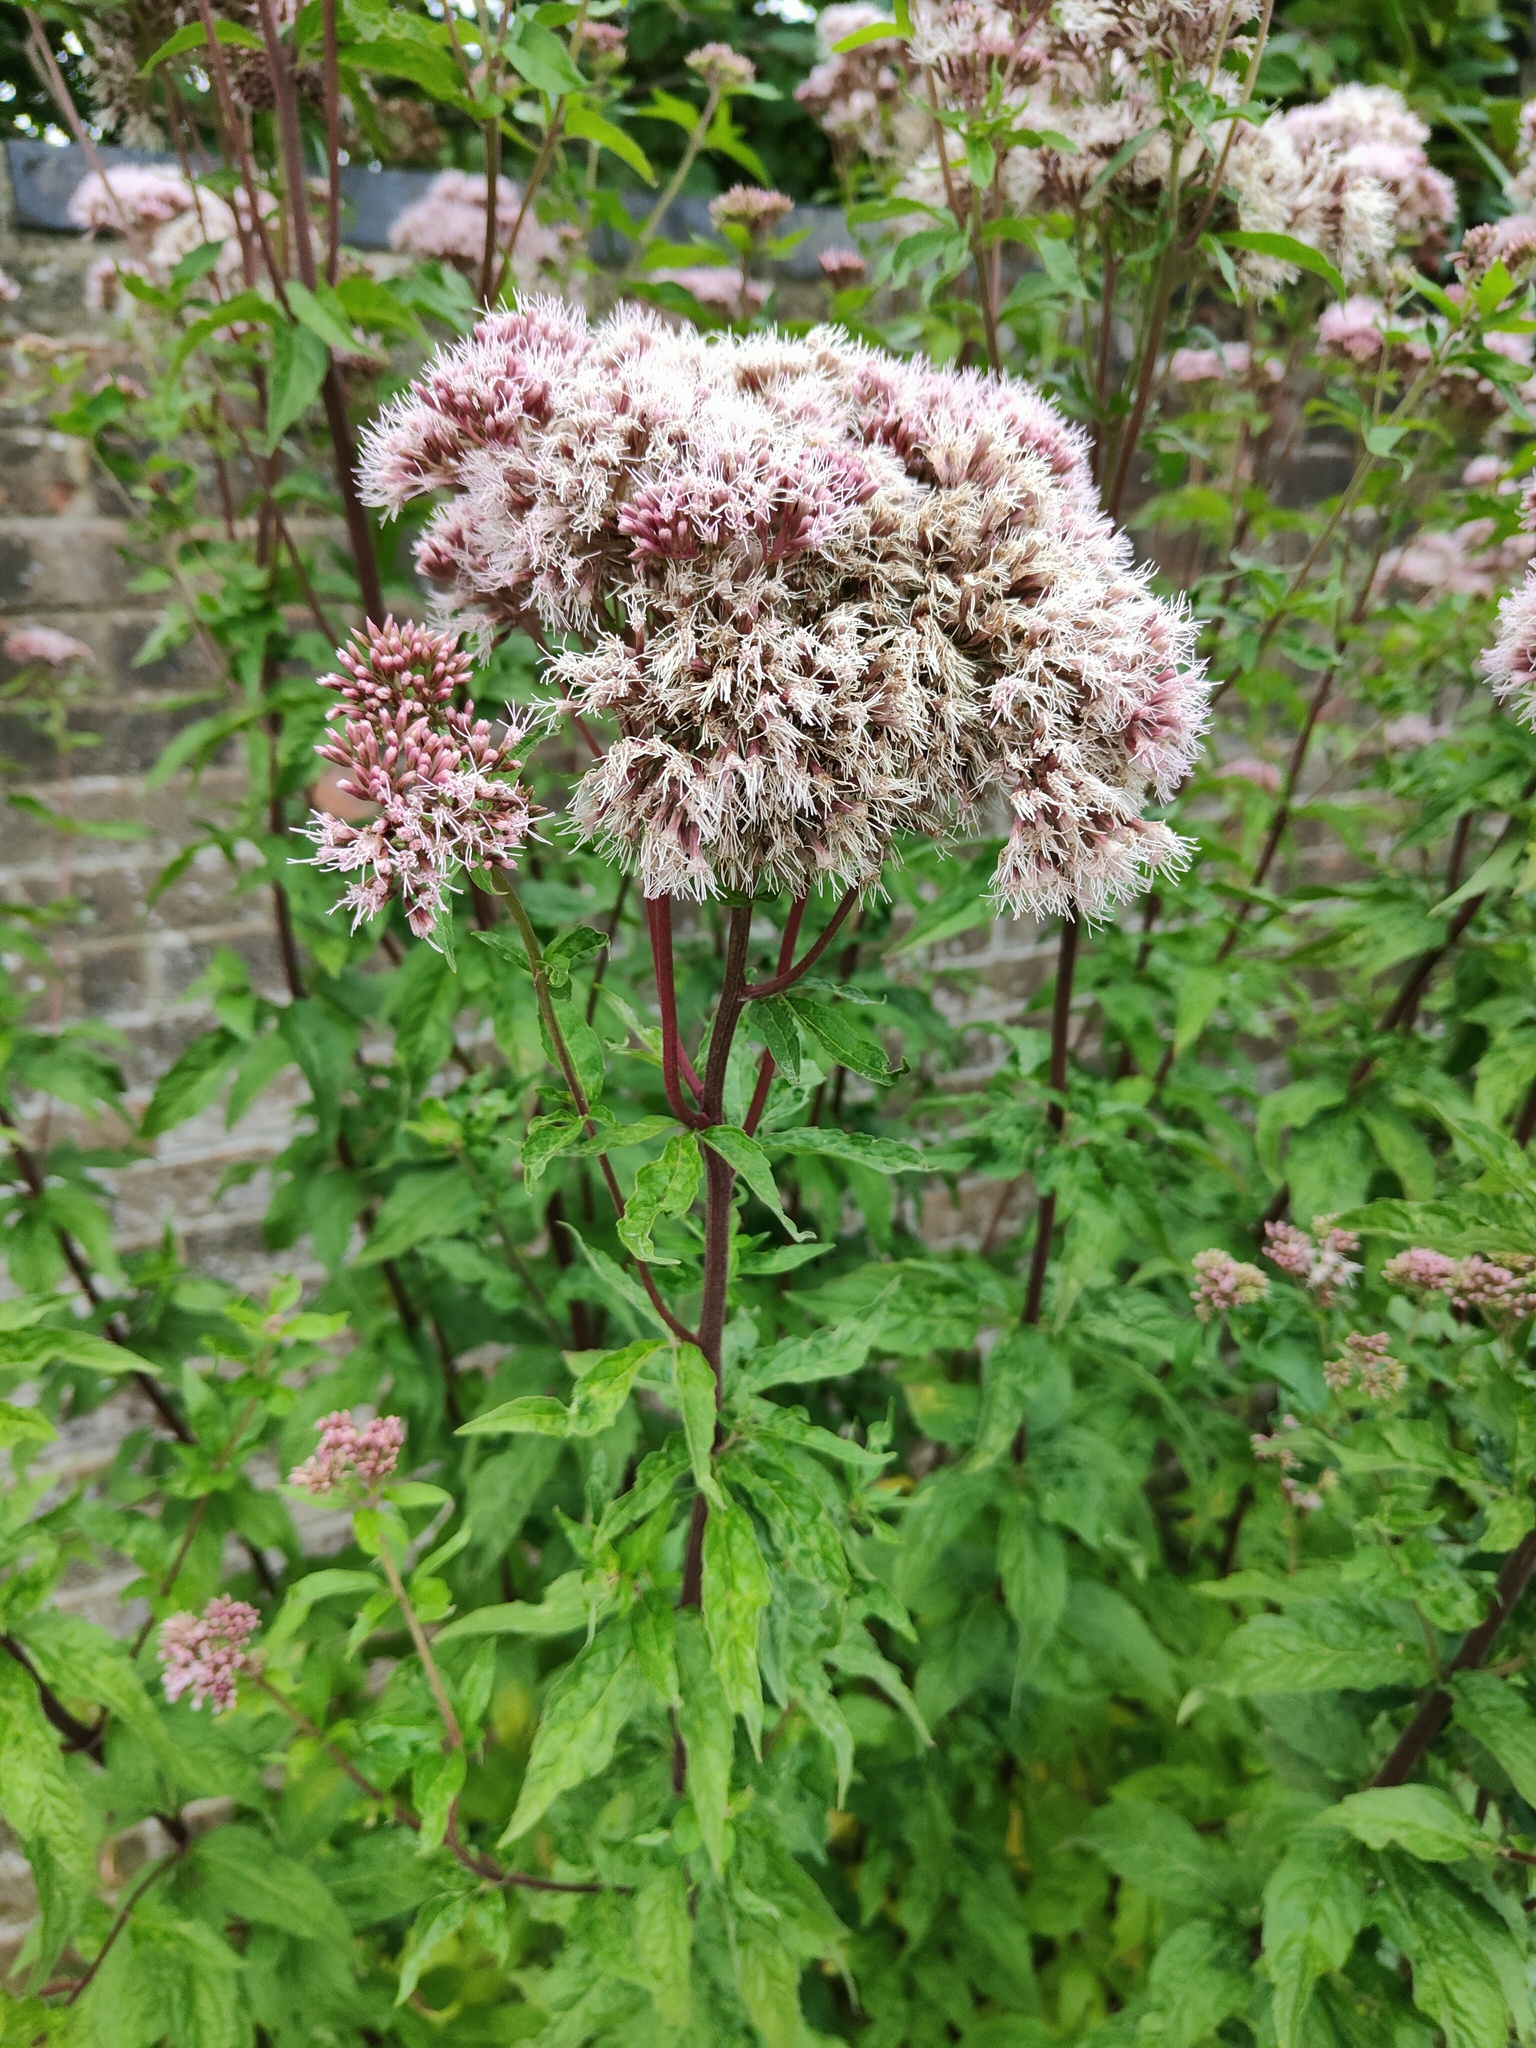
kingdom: Plantae
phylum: Tracheophyta
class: Magnoliopsida
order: Asterales
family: Asteraceae
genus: Eupatorium
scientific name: Eupatorium cannabinum
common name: Hemp-agrimony
